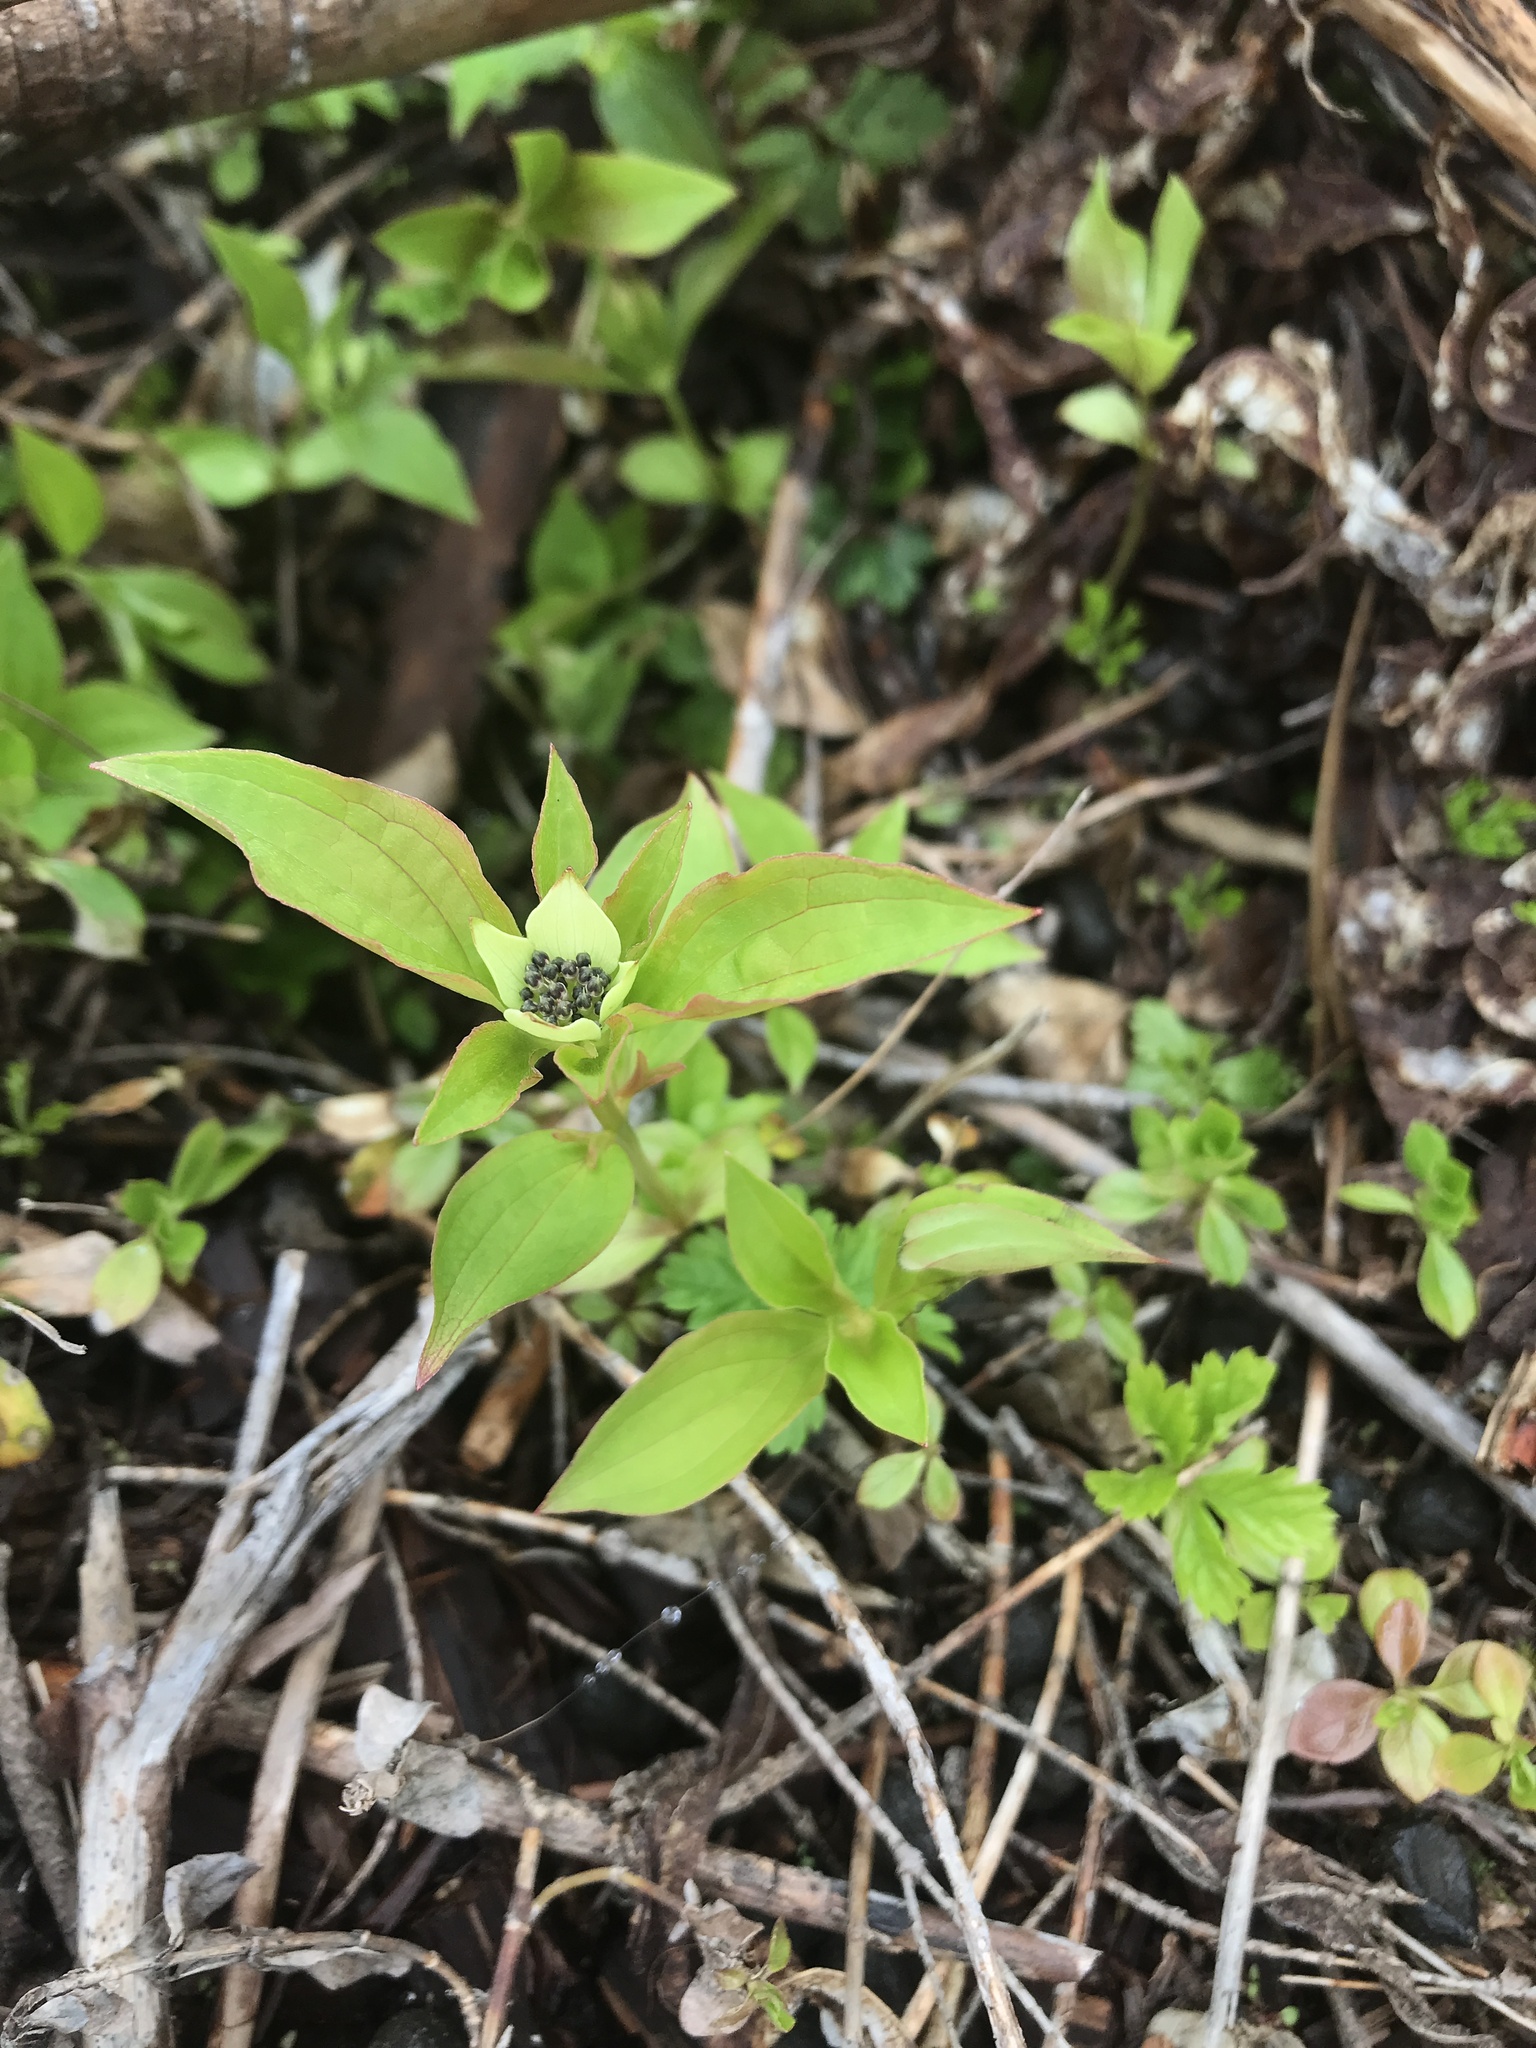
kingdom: Plantae
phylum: Tracheophyta
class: Magnoliopsida
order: Cornales
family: Cornaceae
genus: Cornus
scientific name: Cornus unalaschkensis
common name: Alaska bunchberry
